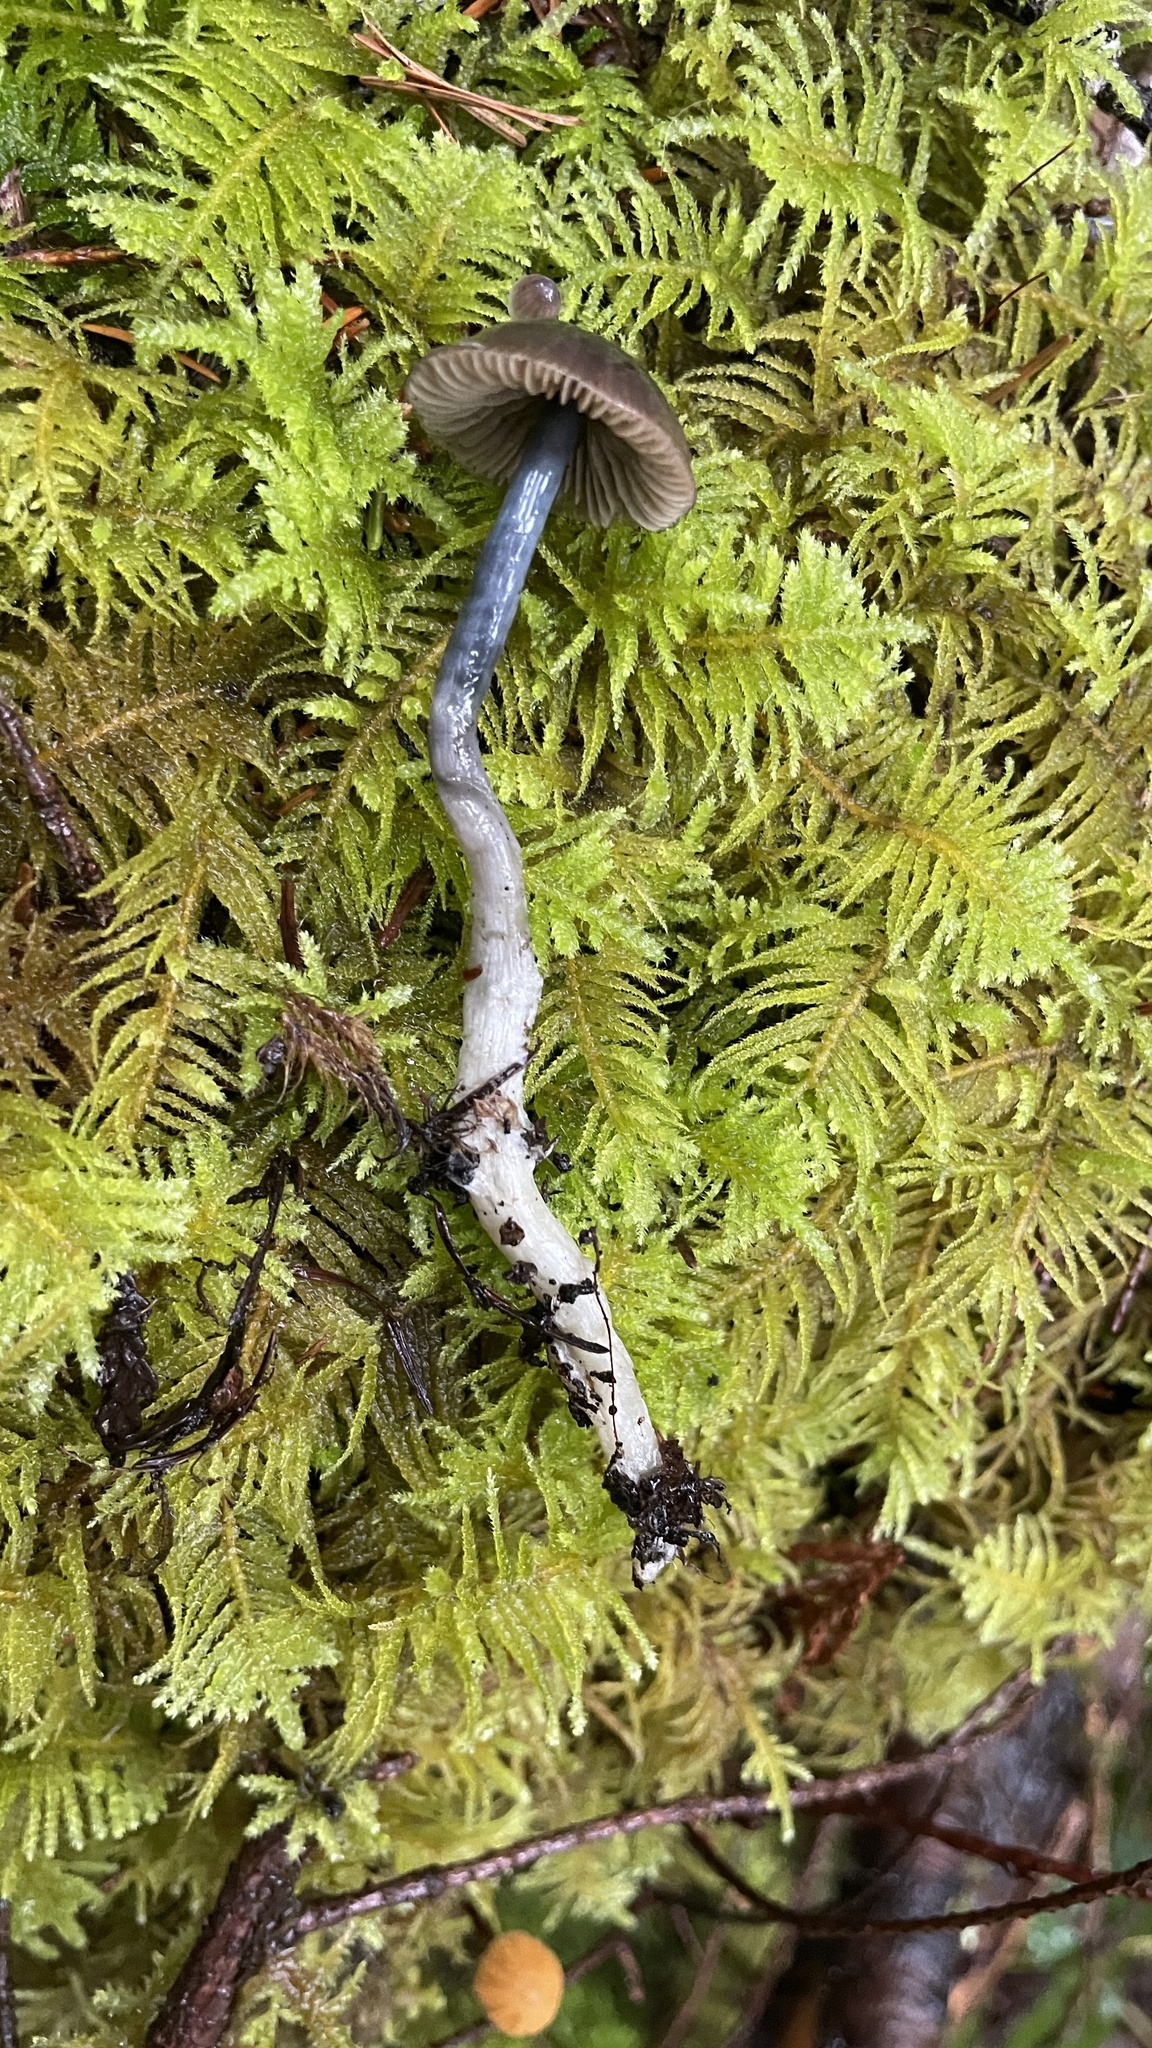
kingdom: Fungi
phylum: Basidiomycota
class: Agaricomycetes
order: Agaricales
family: Entolomataceae
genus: Entocybe
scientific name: Entocybe trachyospora
